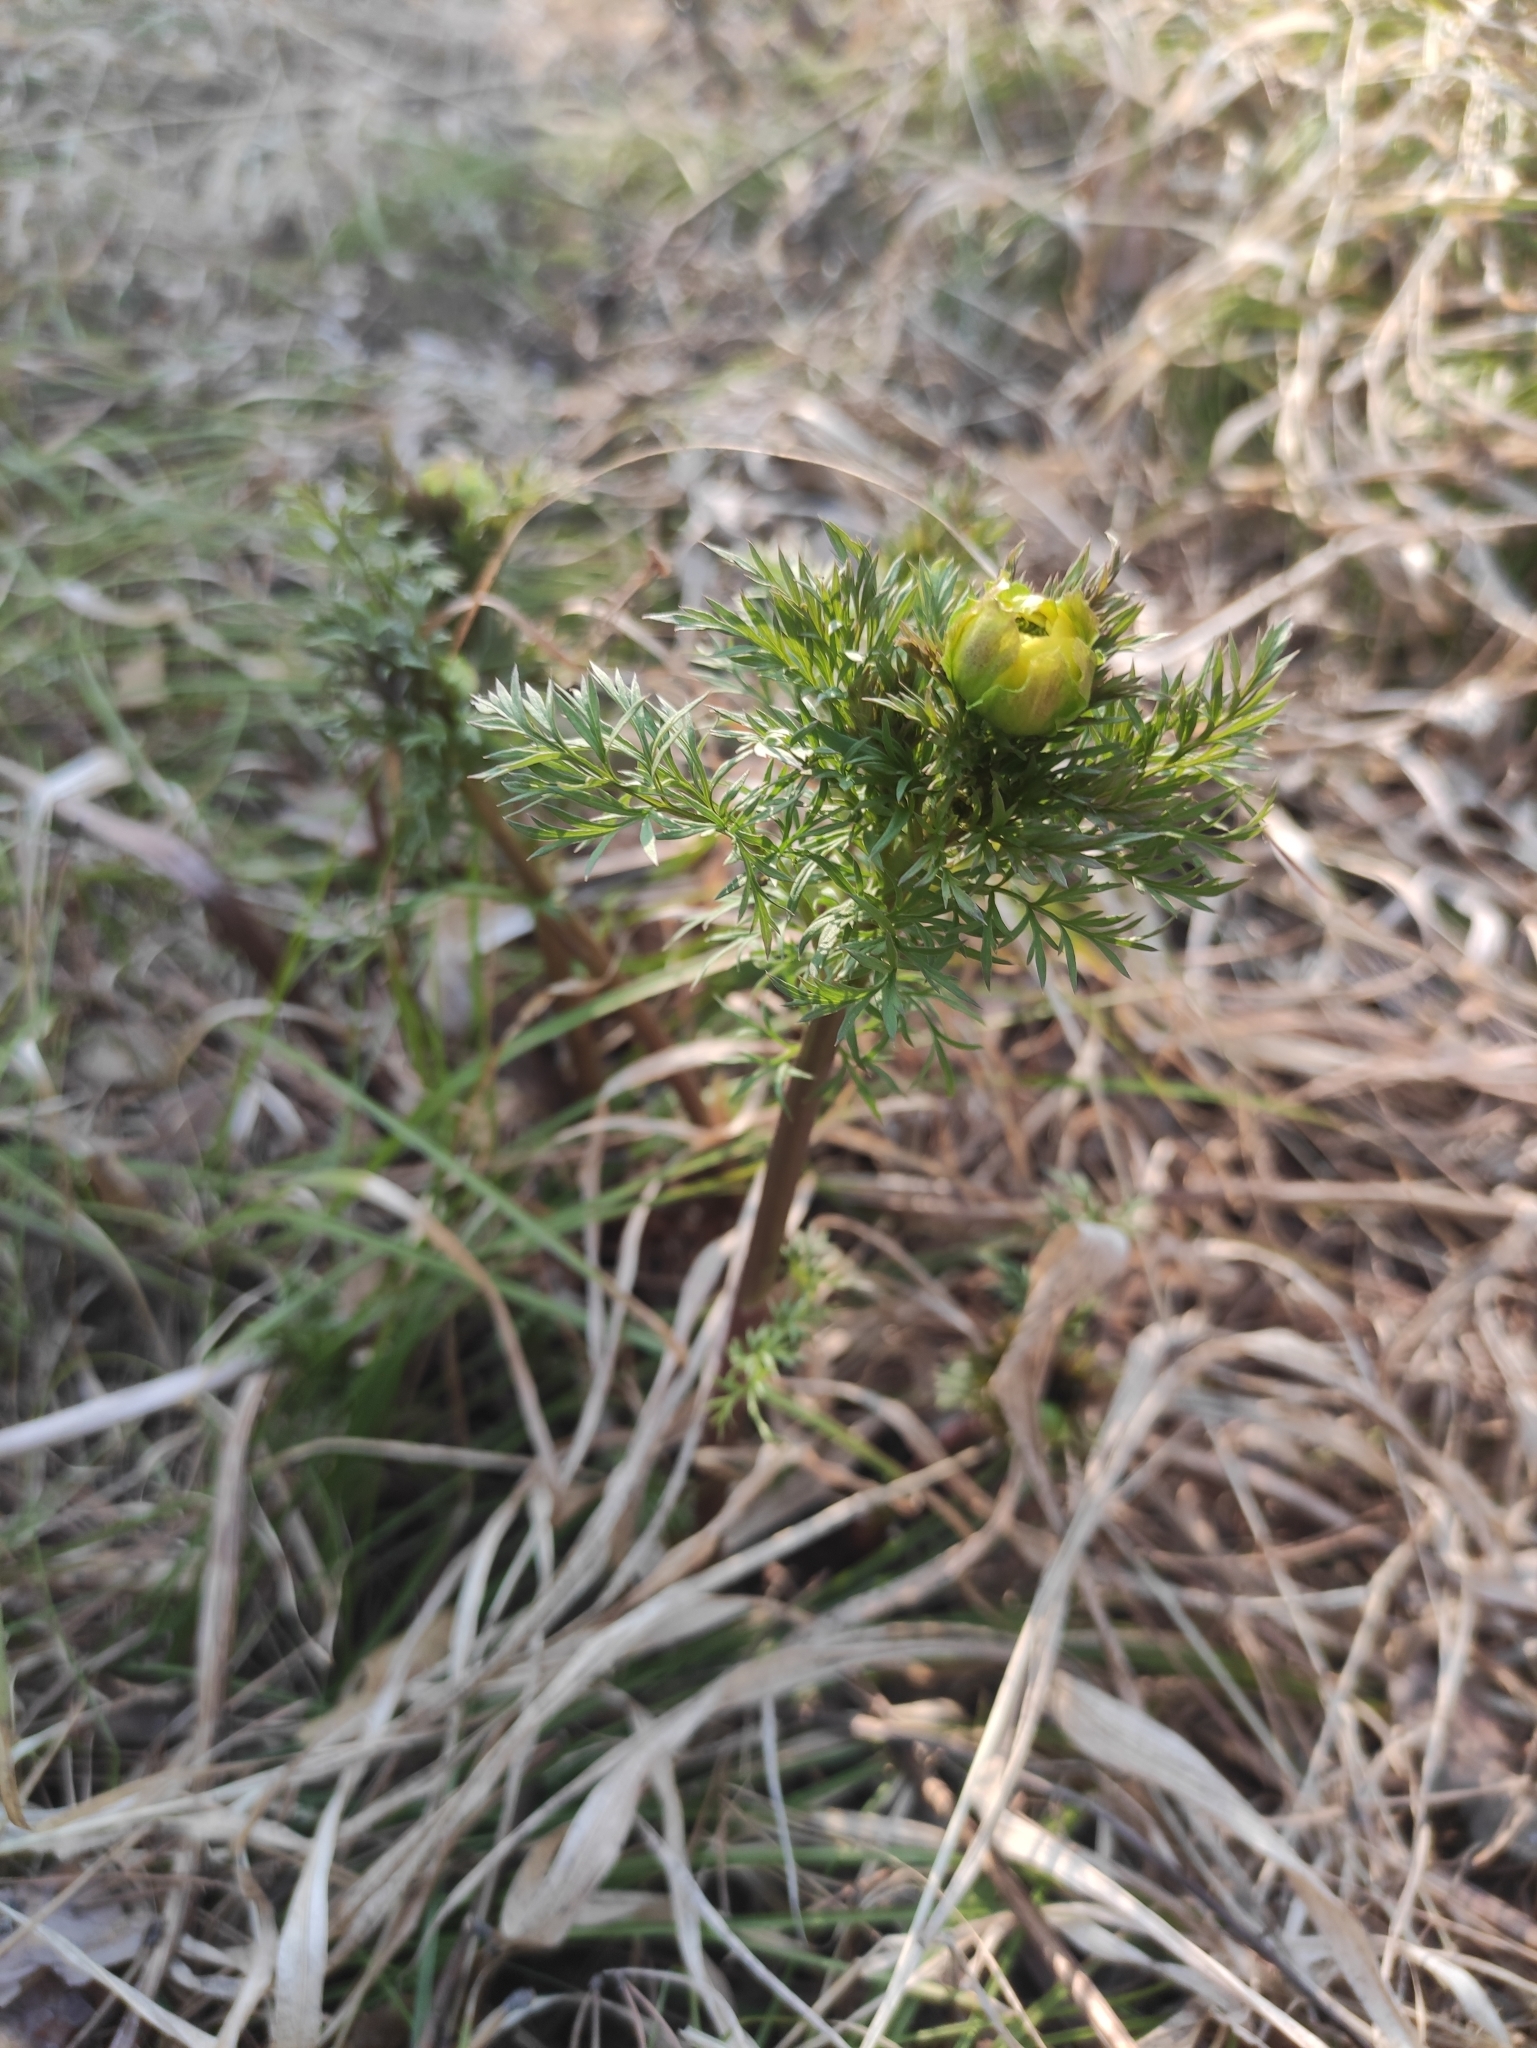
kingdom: Plantae
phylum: Tracheophyta
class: Magnoliopsida
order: Ranunculales
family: Ranunculaceae
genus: Adonis
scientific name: Adonis
